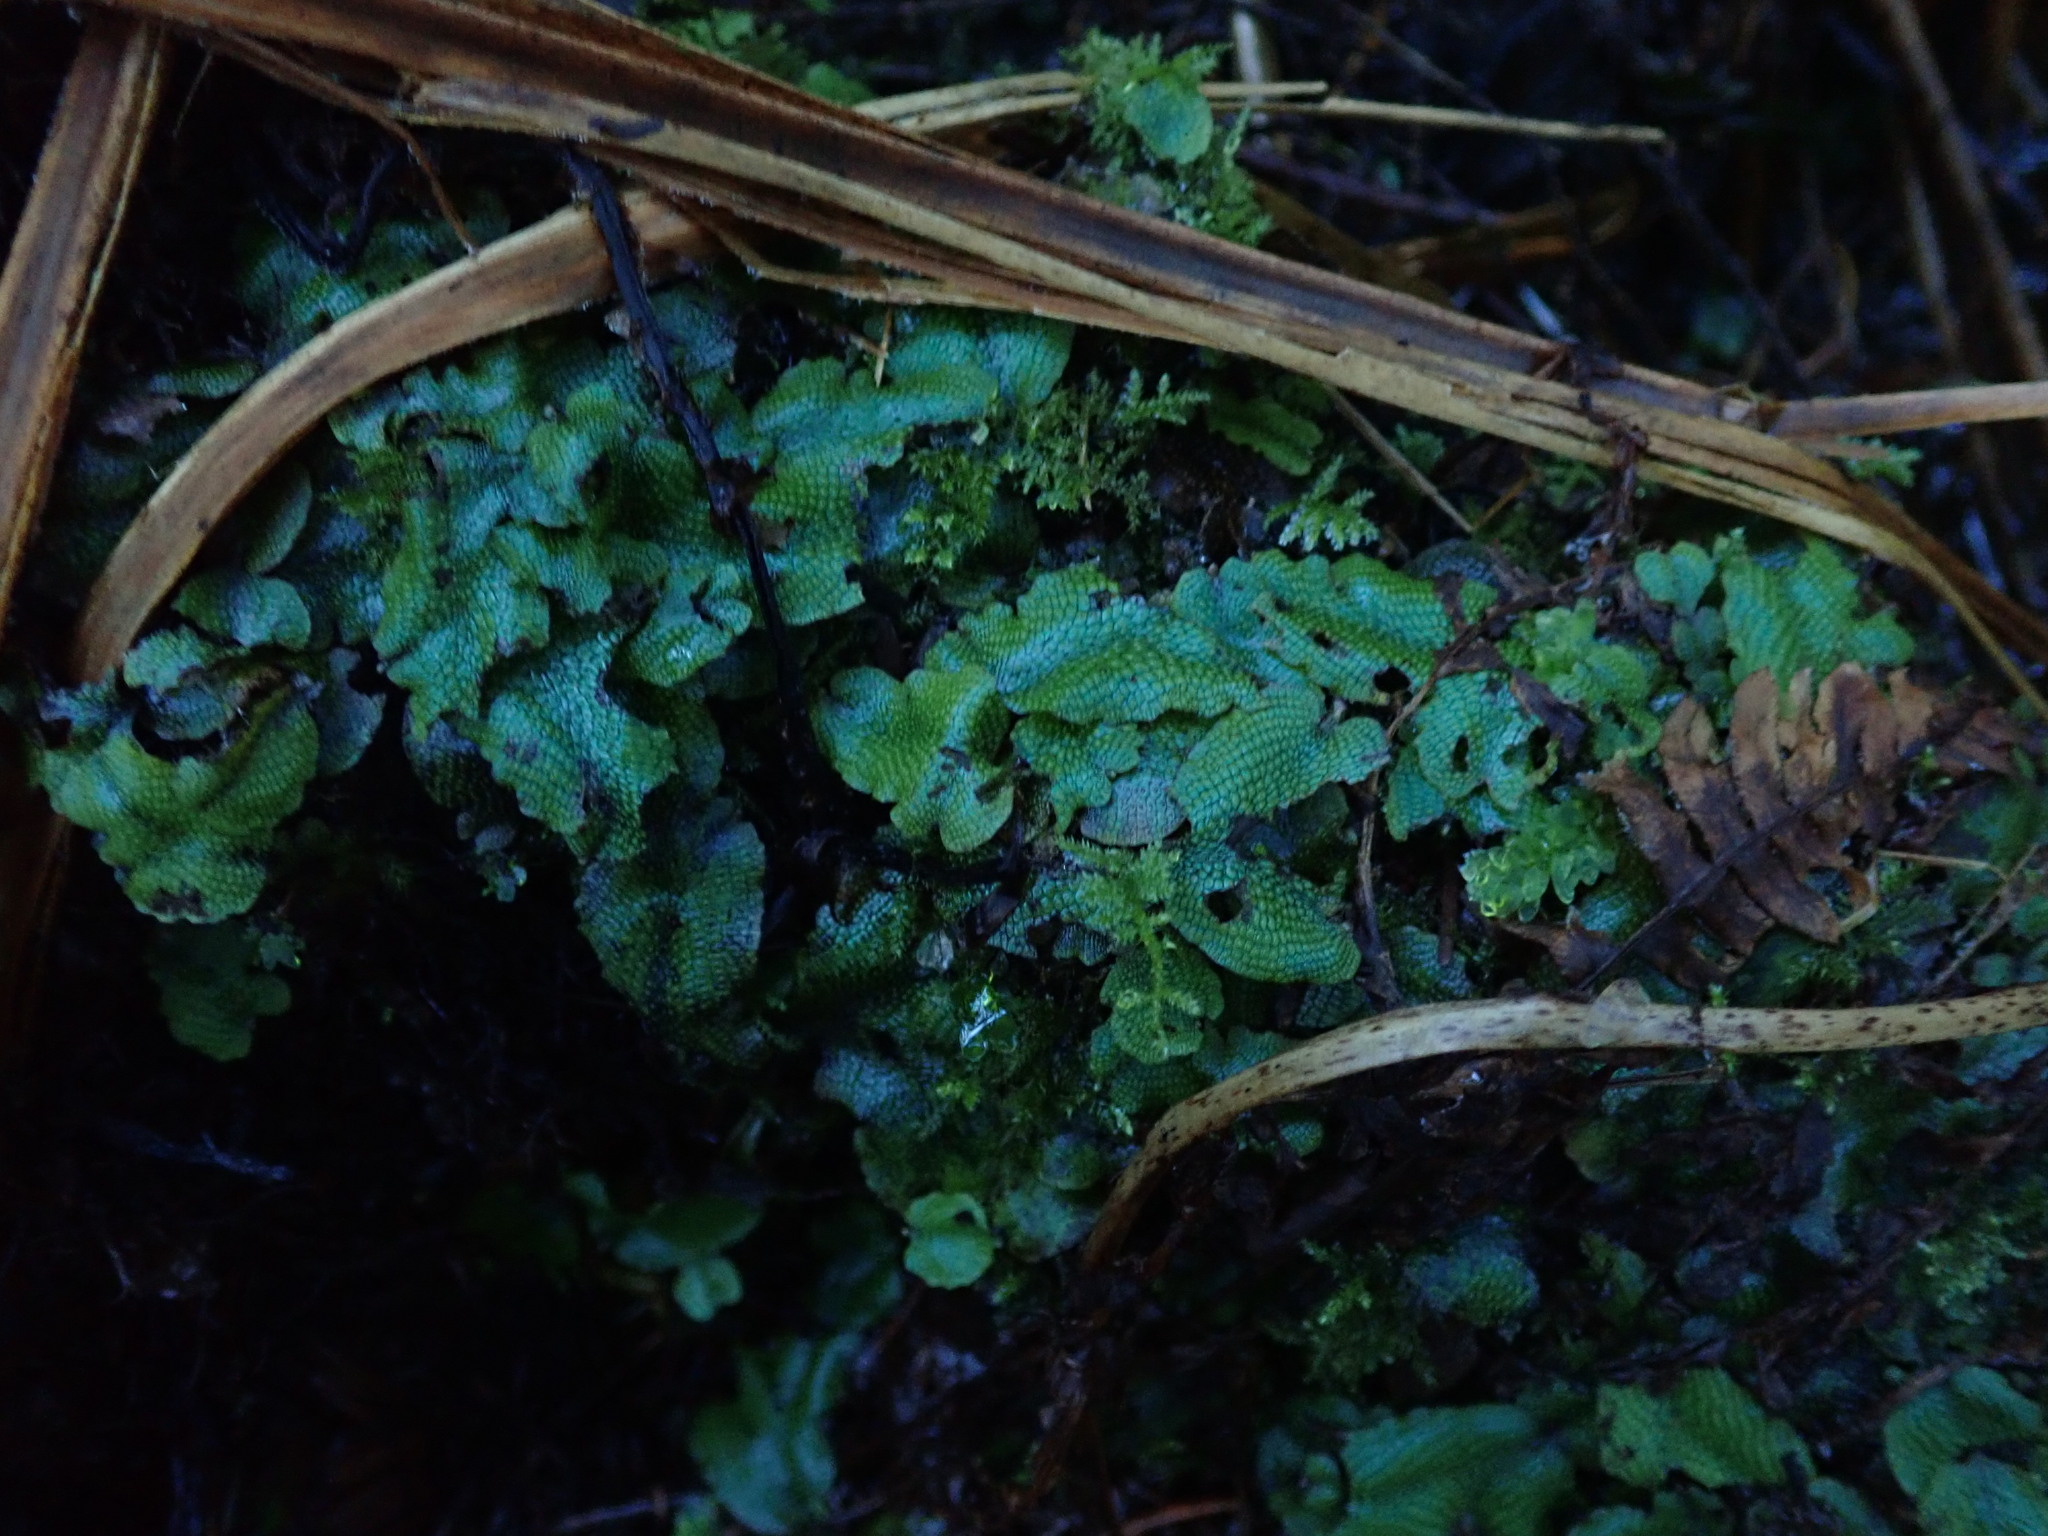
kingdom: Plantae
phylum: Marchantiophyta
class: Marchantiopsida
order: Marchantiales
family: Conocephalaceae
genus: Conocephalum
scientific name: Conocephalum salebrosum
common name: Cat-tongue liverwort
